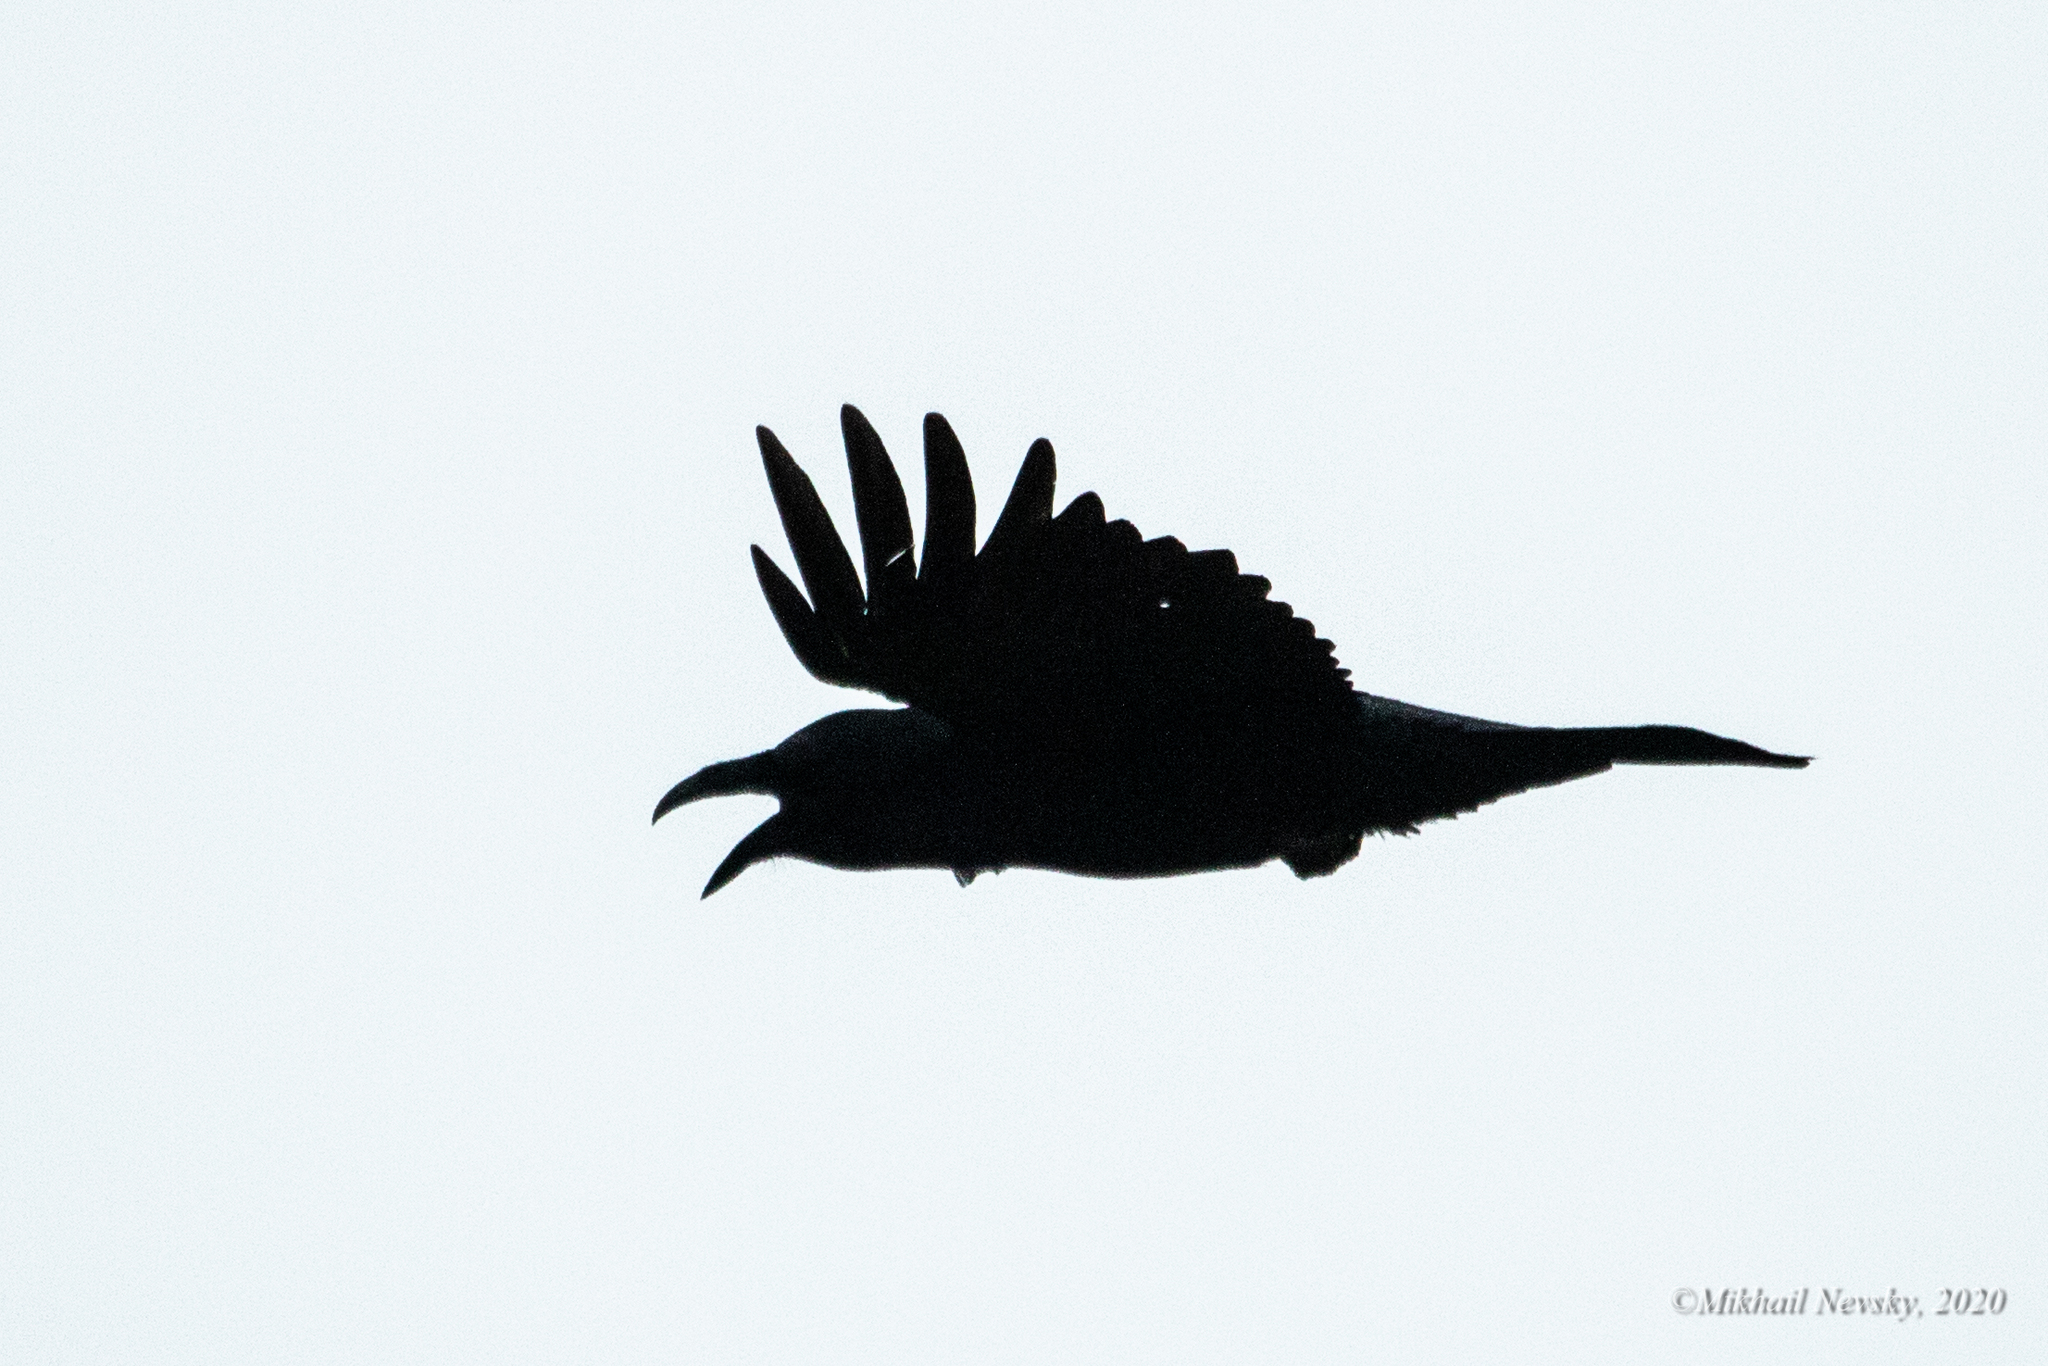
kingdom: Animalia
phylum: Chordata
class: Aves
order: Passeriformes
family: Corvidae
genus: Corvus
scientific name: Corvus corax
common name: Common raven
